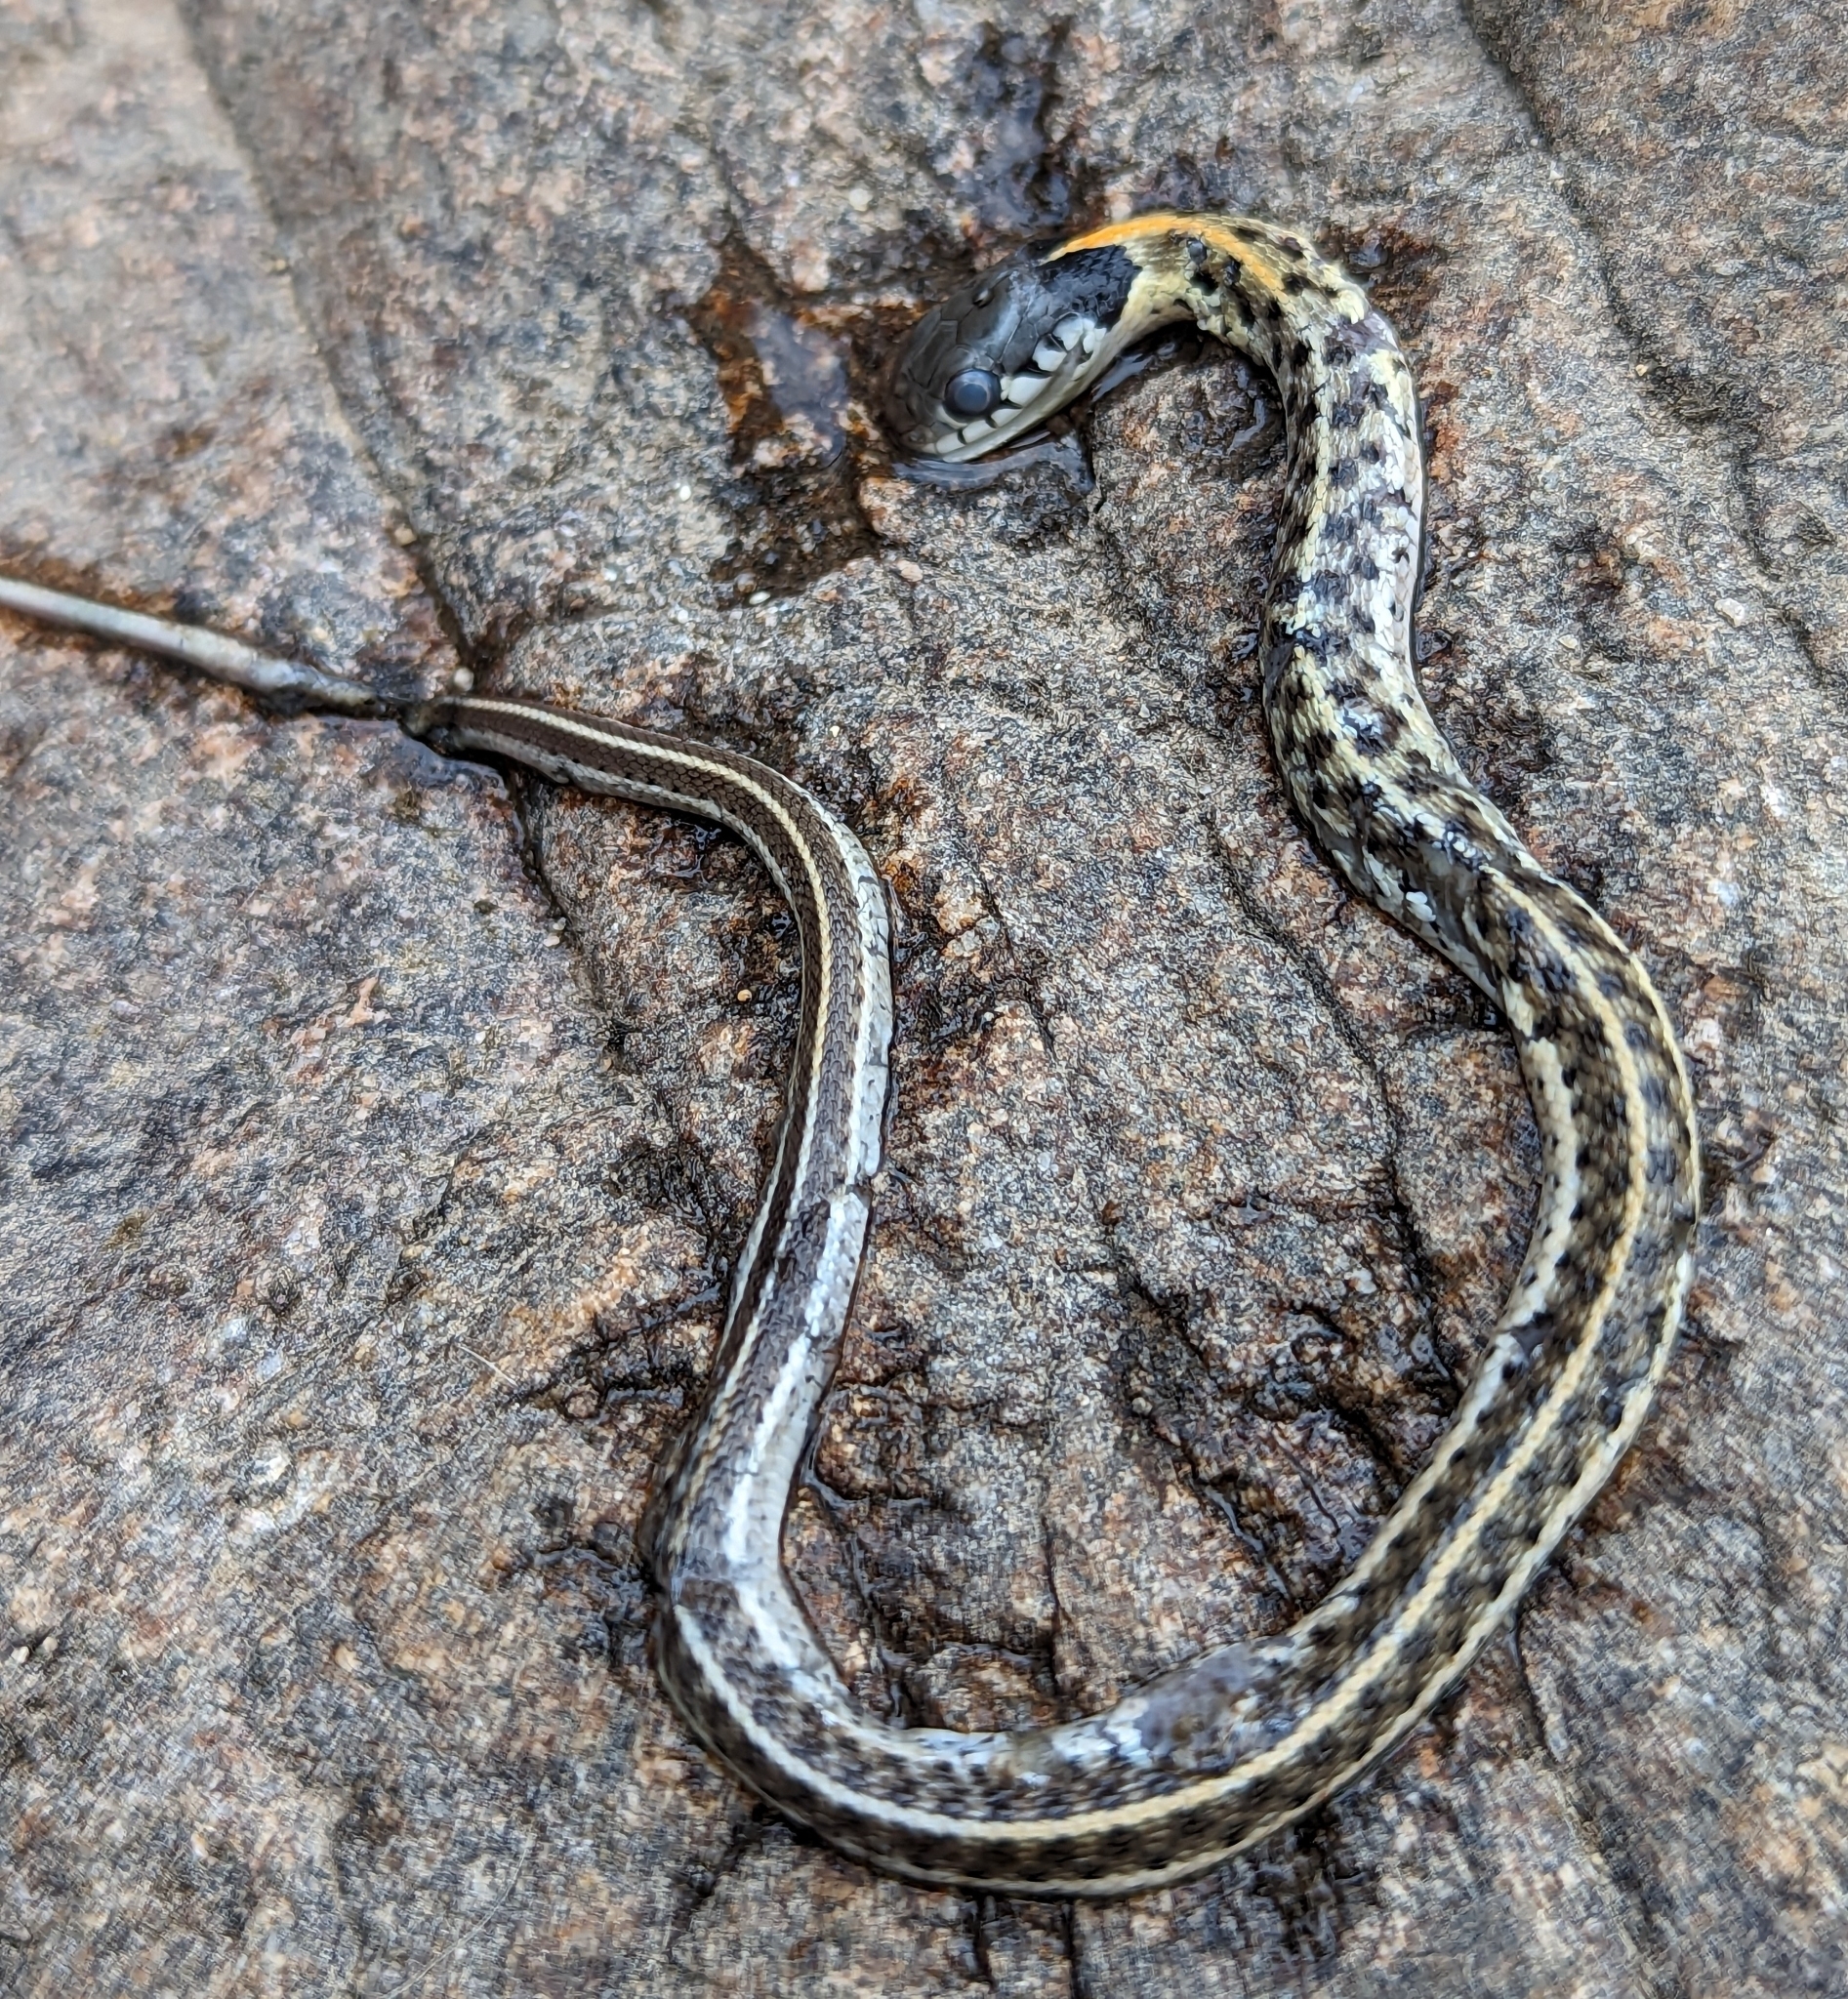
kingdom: Animalia
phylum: Chordata
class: Squamata
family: Colubridae
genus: Thamnophis
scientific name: Thamnophis cyrtopsis
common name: Black-necked gartersnake
